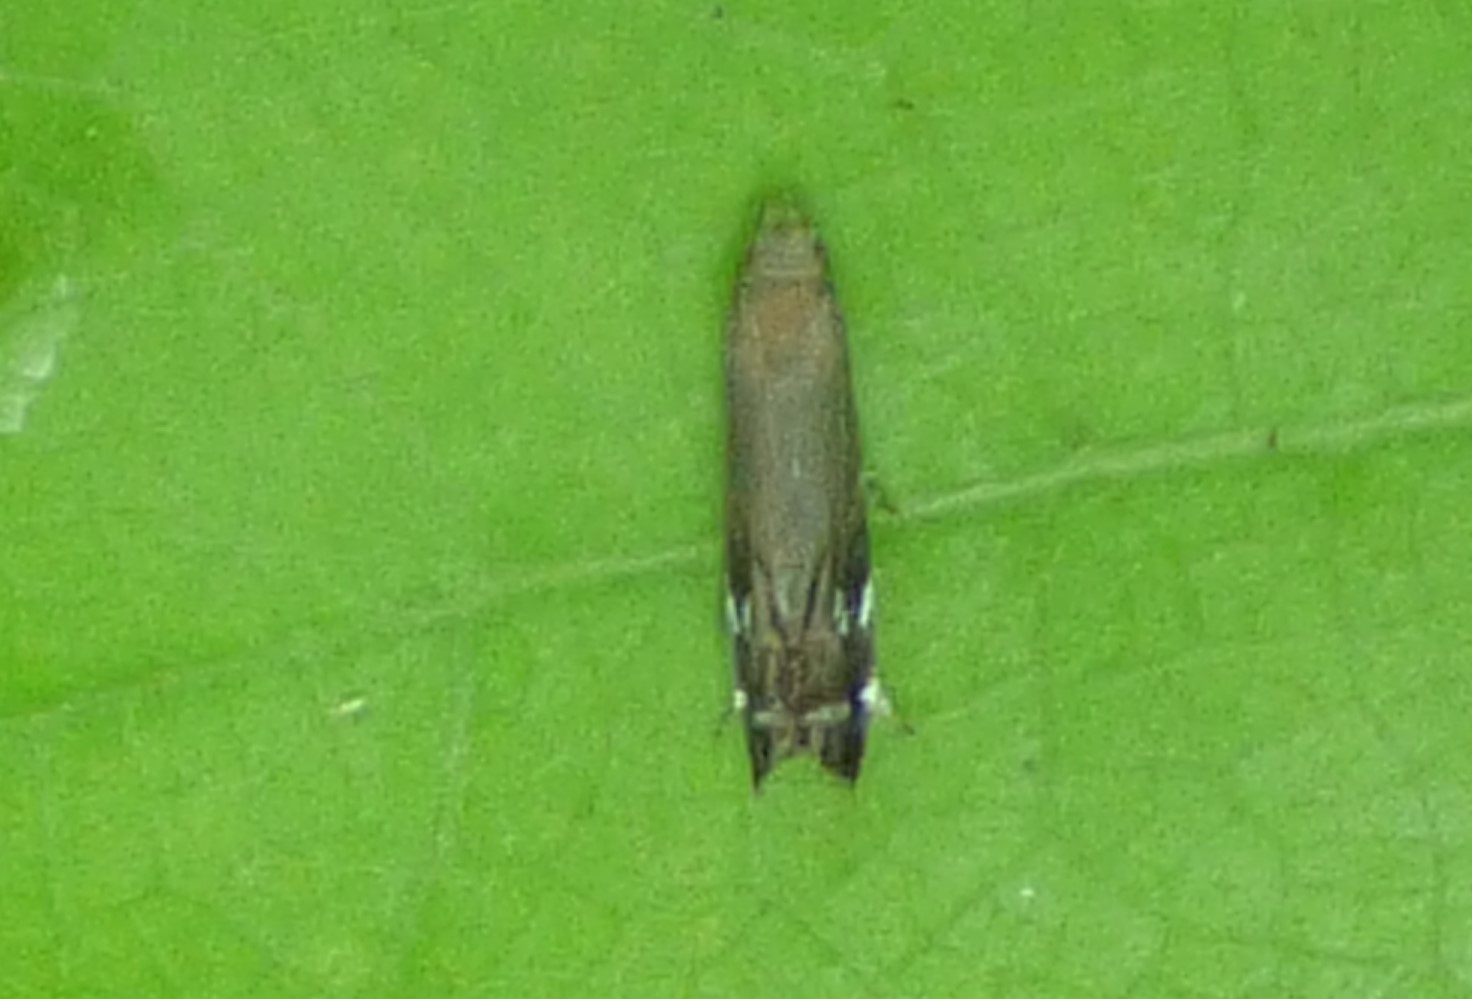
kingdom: Animalia
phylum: Arthropoda
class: Insecta
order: Lepidoptera
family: Gelechiidae
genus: Anacampsis
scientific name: Anacampsis levipedella
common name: Silver-dashed anacampsis
